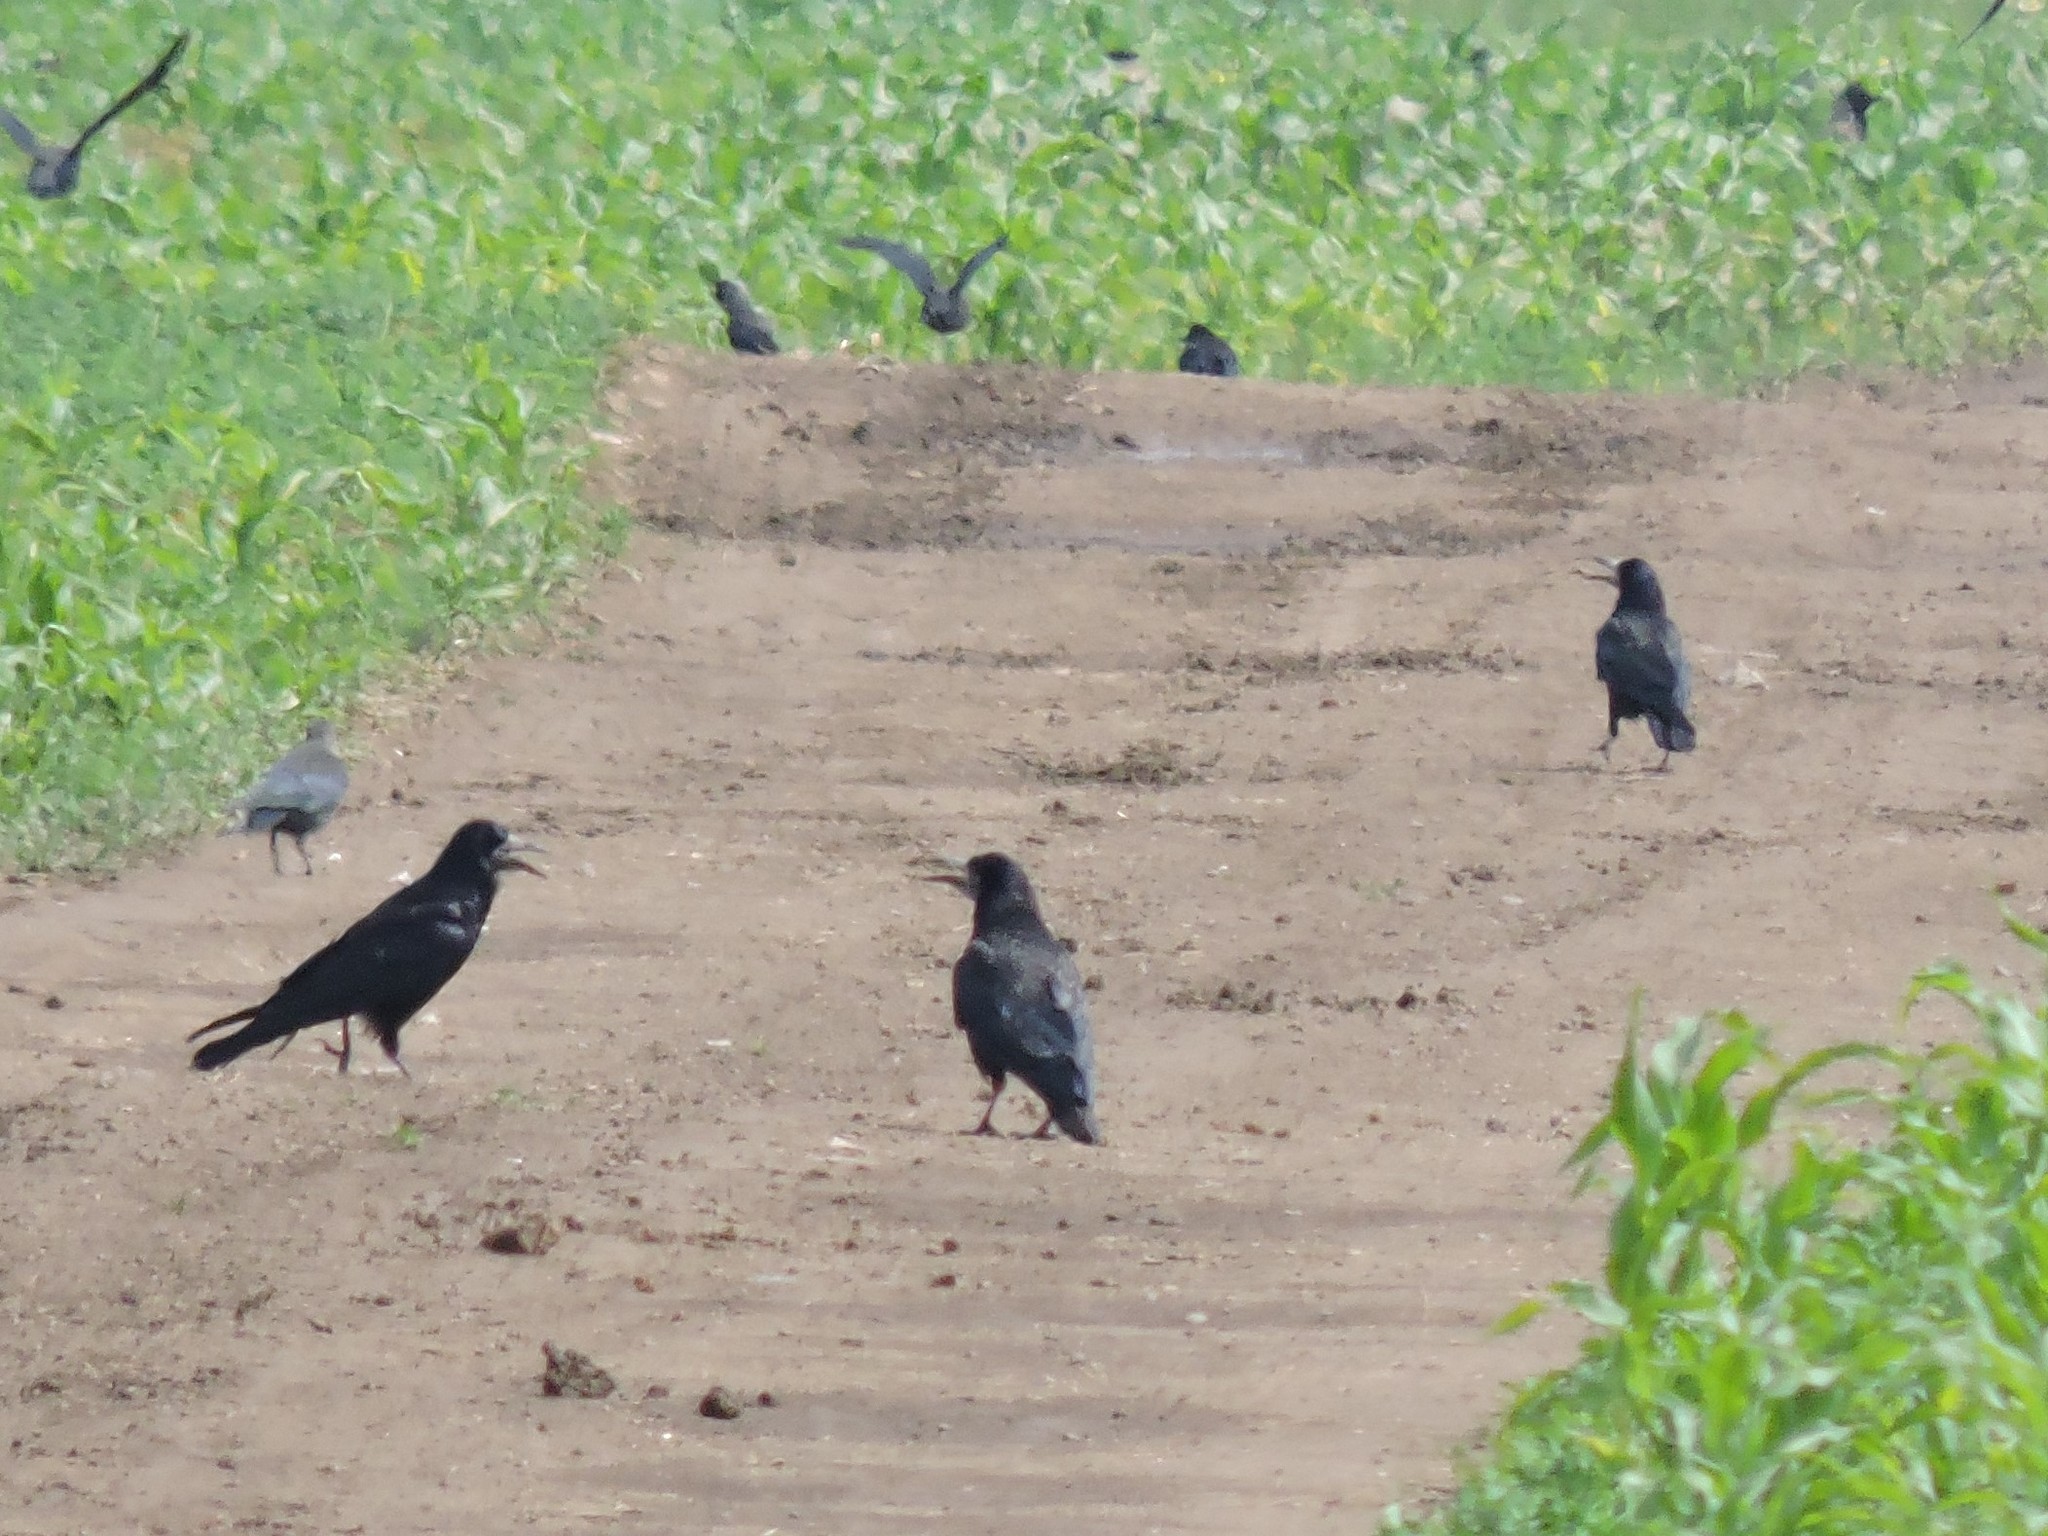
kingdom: Animalia
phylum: Chordata
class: Aves
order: Passeriformes
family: Corvidae
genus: Corvus
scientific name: Corvus frugilegus
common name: Rook
